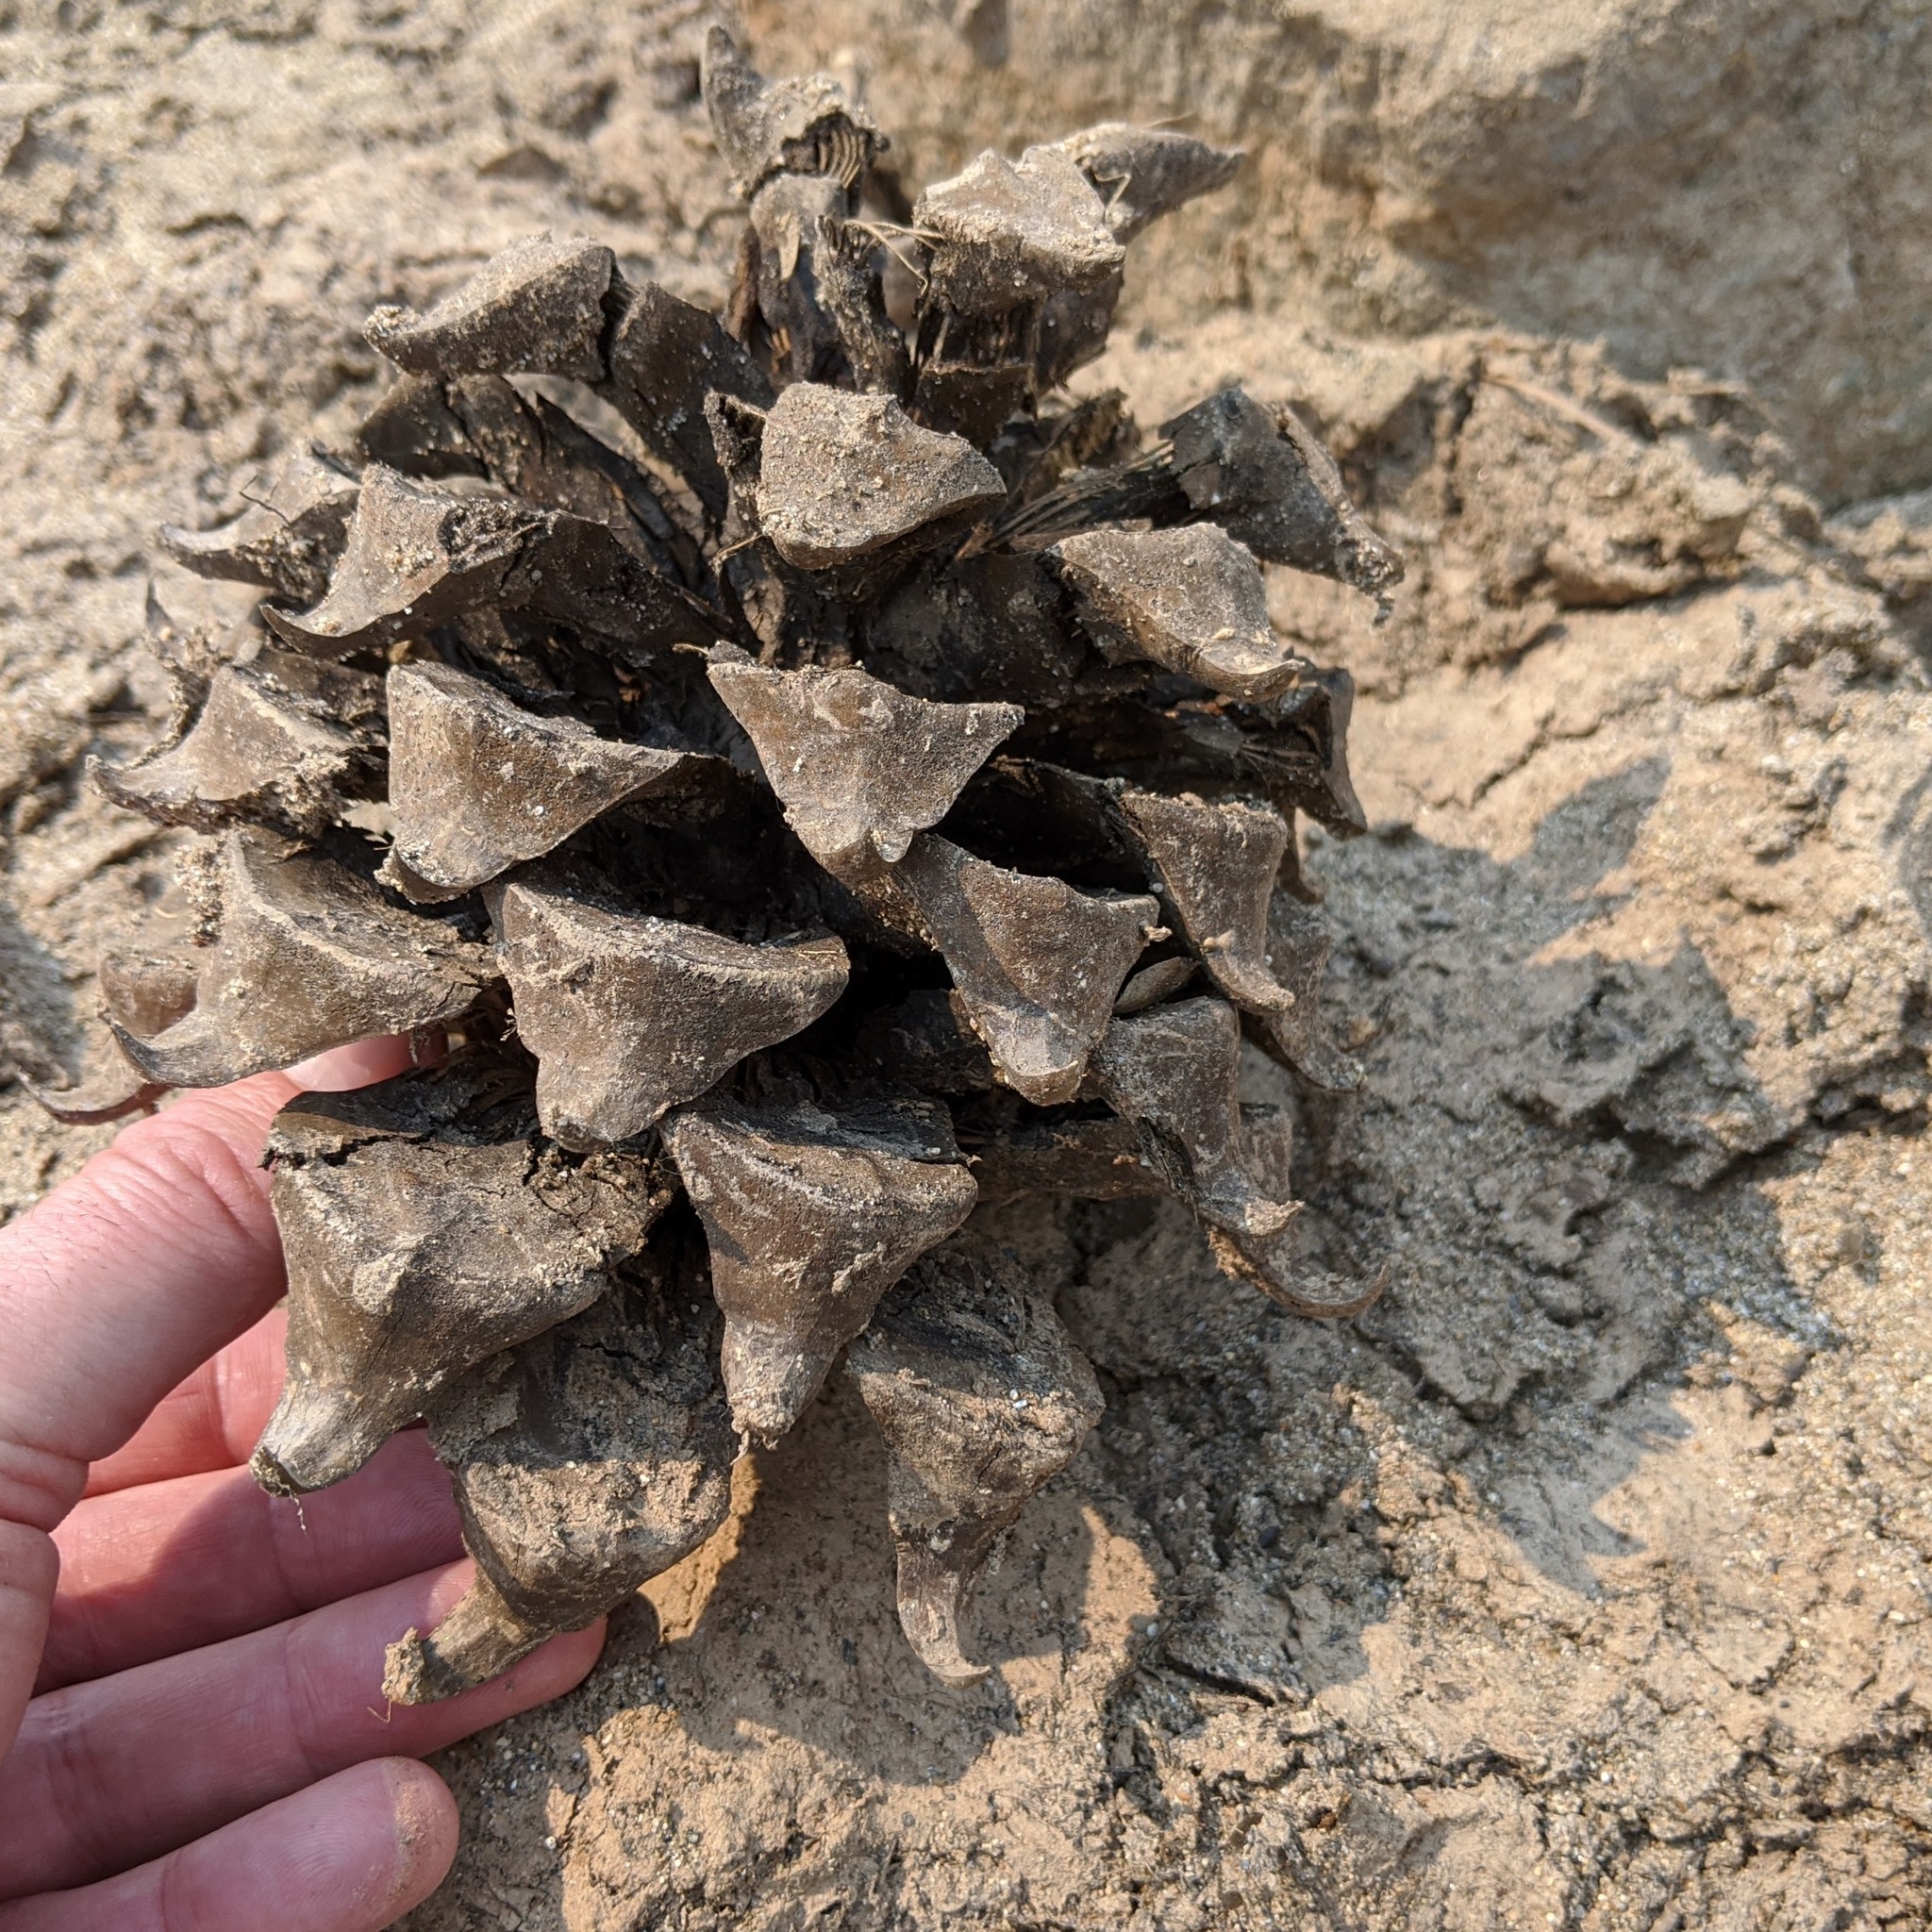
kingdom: Plantae
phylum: Tracheophyta
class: Pinopsida
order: Pinales
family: Pinaceae
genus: Pinus
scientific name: Pinus sabiniana
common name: Bull pine
